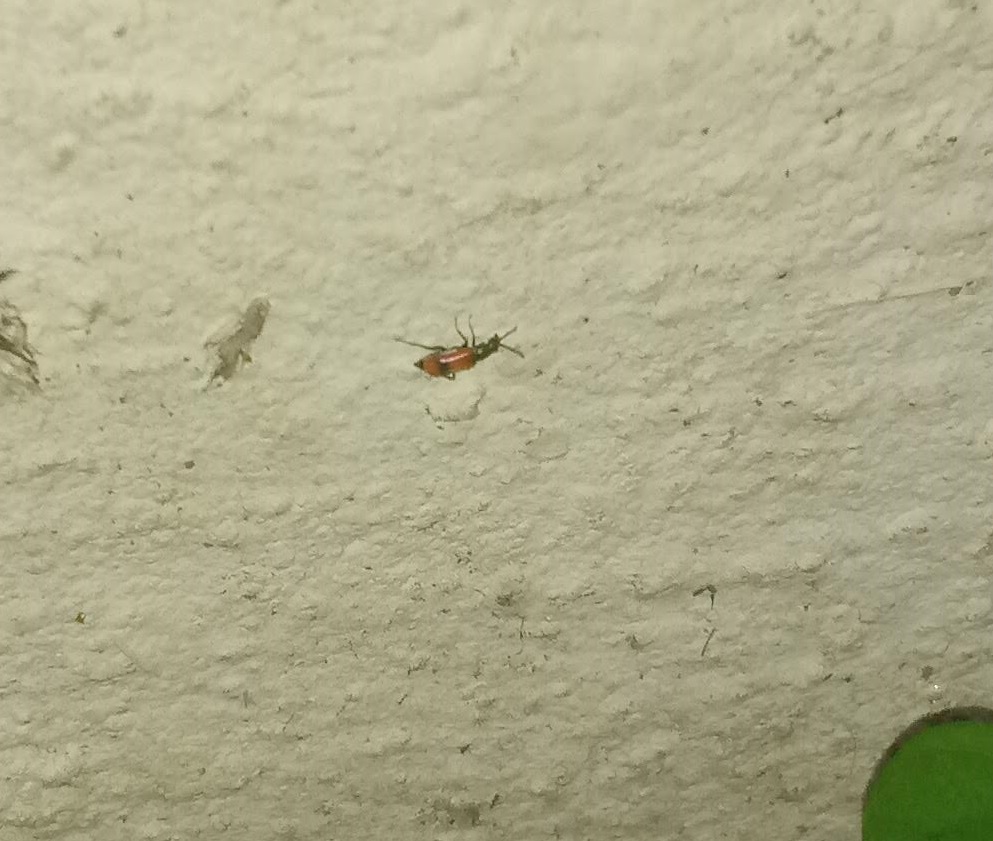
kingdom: Animalia
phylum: Arthropoda
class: Insecta
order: Coleoptera
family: Melyridae
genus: Anthocomus
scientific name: Anthocomus equestris
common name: Black-banded soft-winged flower beetle
